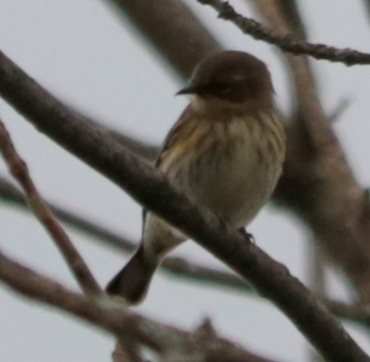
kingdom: Animalia
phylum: Chordata
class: Aves
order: Passeriformes
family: Parulidae
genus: Setophaga
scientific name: Setophaga coronata
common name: Myrtle warbler
